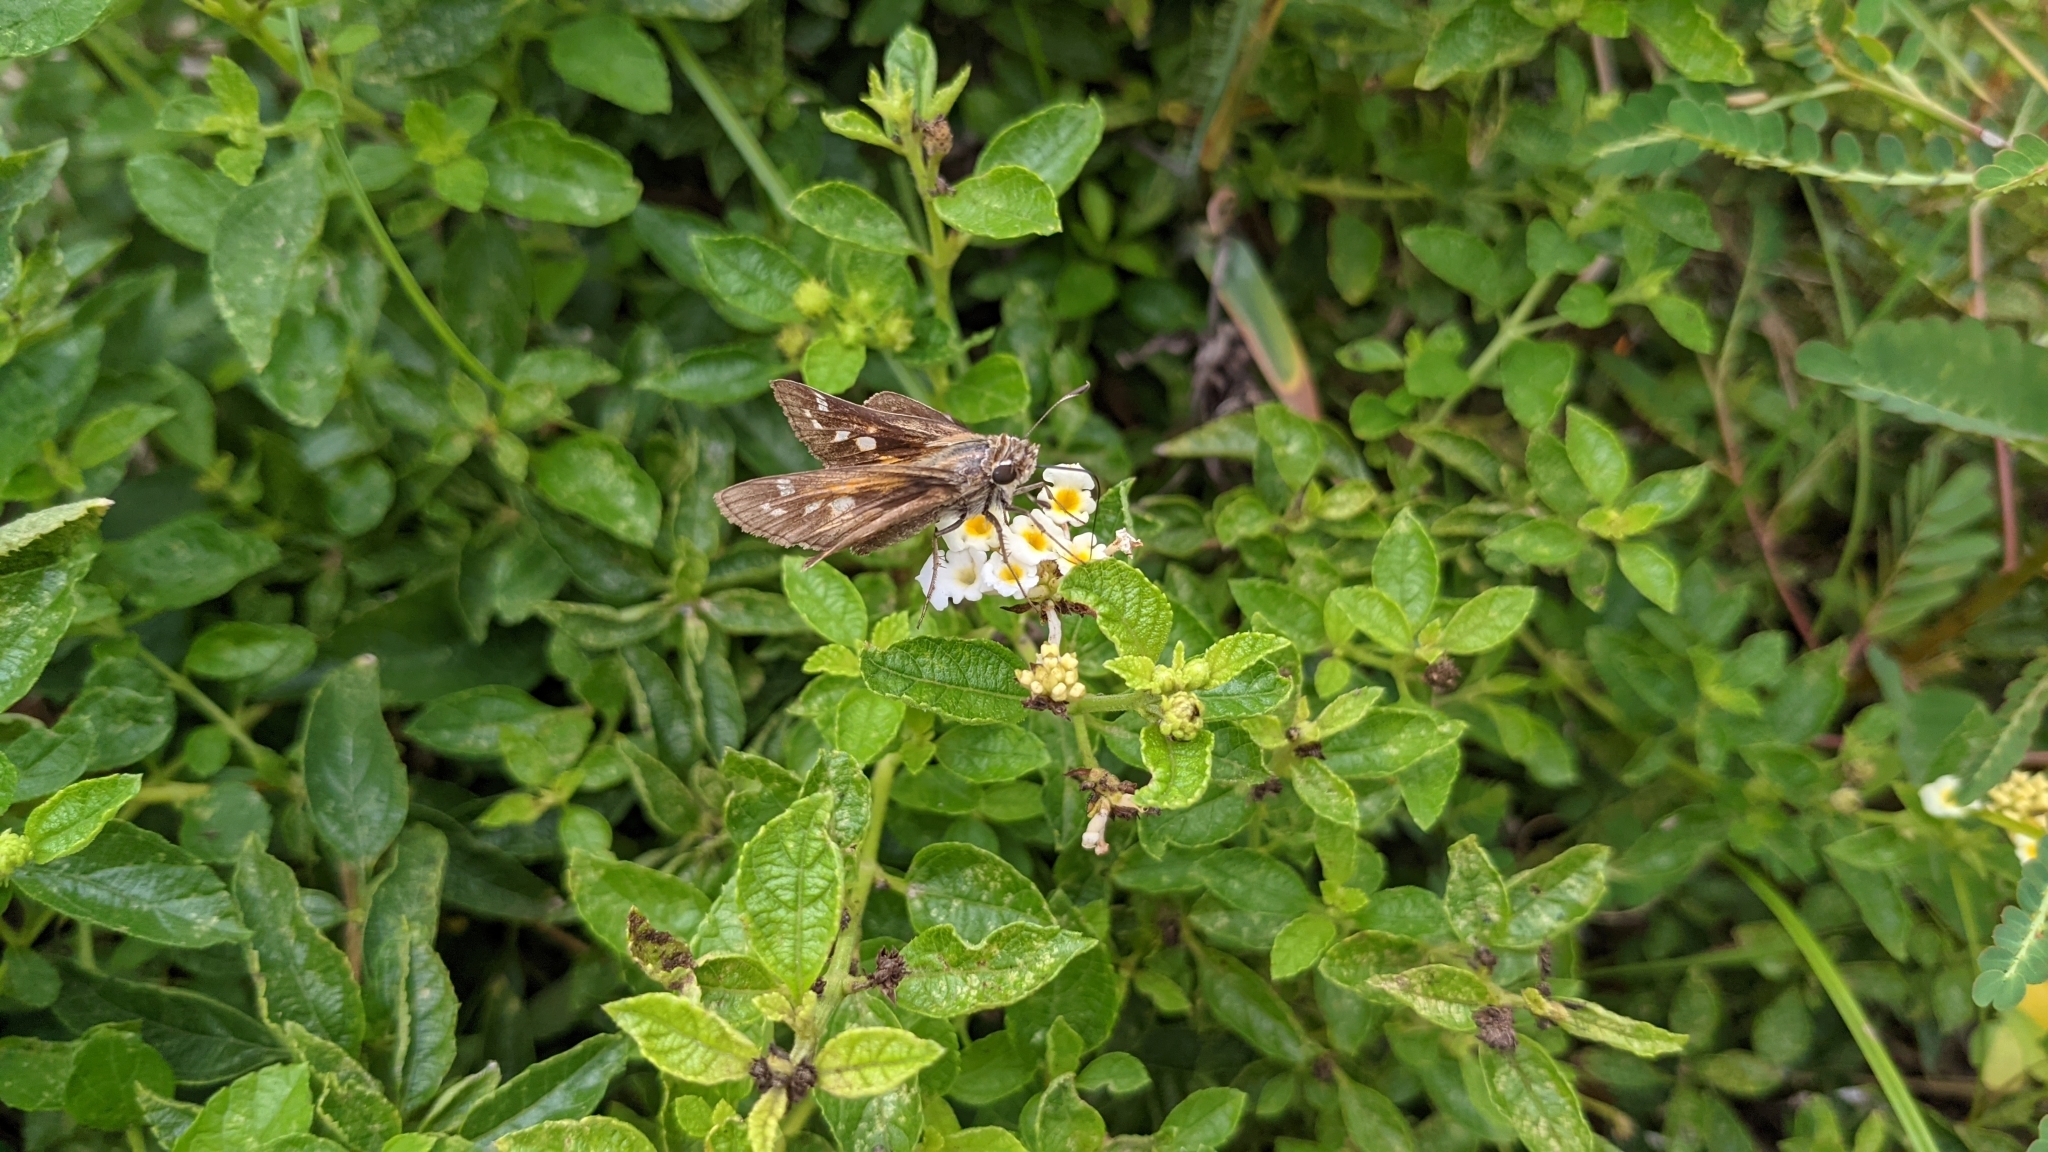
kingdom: Animalia
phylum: Arthropoda
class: Insecta
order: Lepidoptera
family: Hesperiidae
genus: Atalopedes
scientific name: Atalopedes
